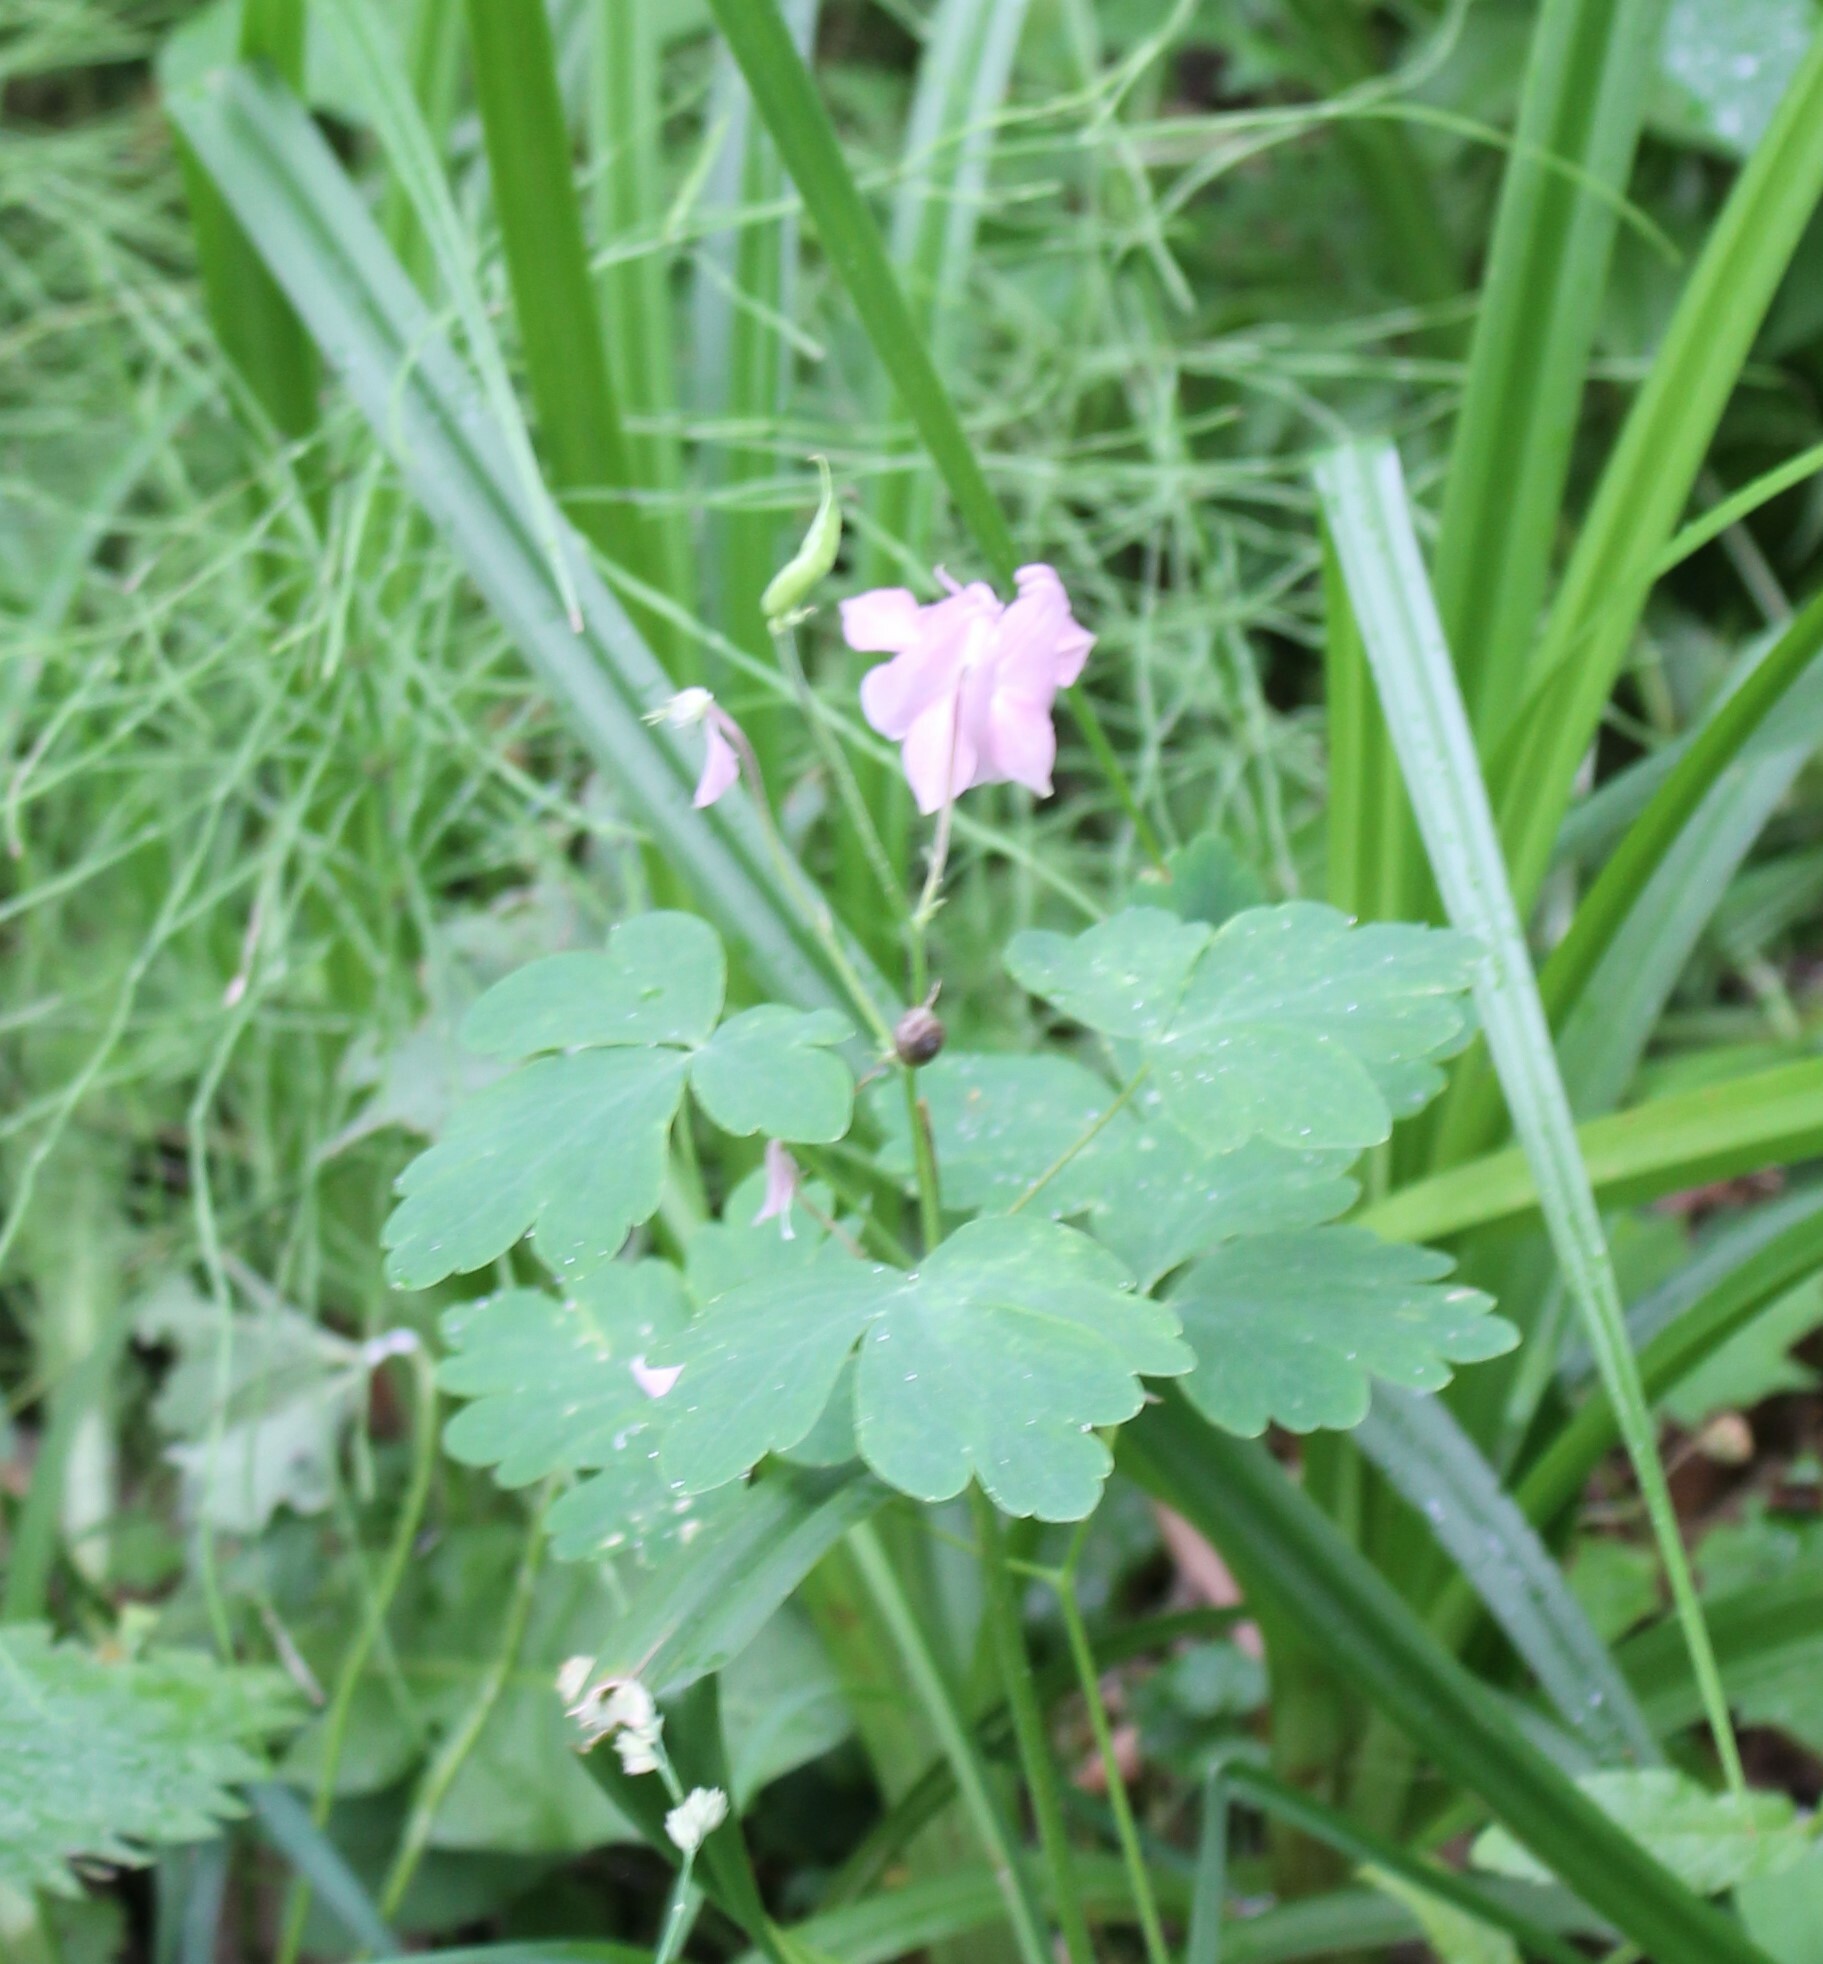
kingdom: Plantae
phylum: Tracheophyta
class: Magnoliopsida
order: Ranunculales
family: Ranunculaceae
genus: Aquilegia
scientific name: Aquilegia vulgaris
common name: Columbine
